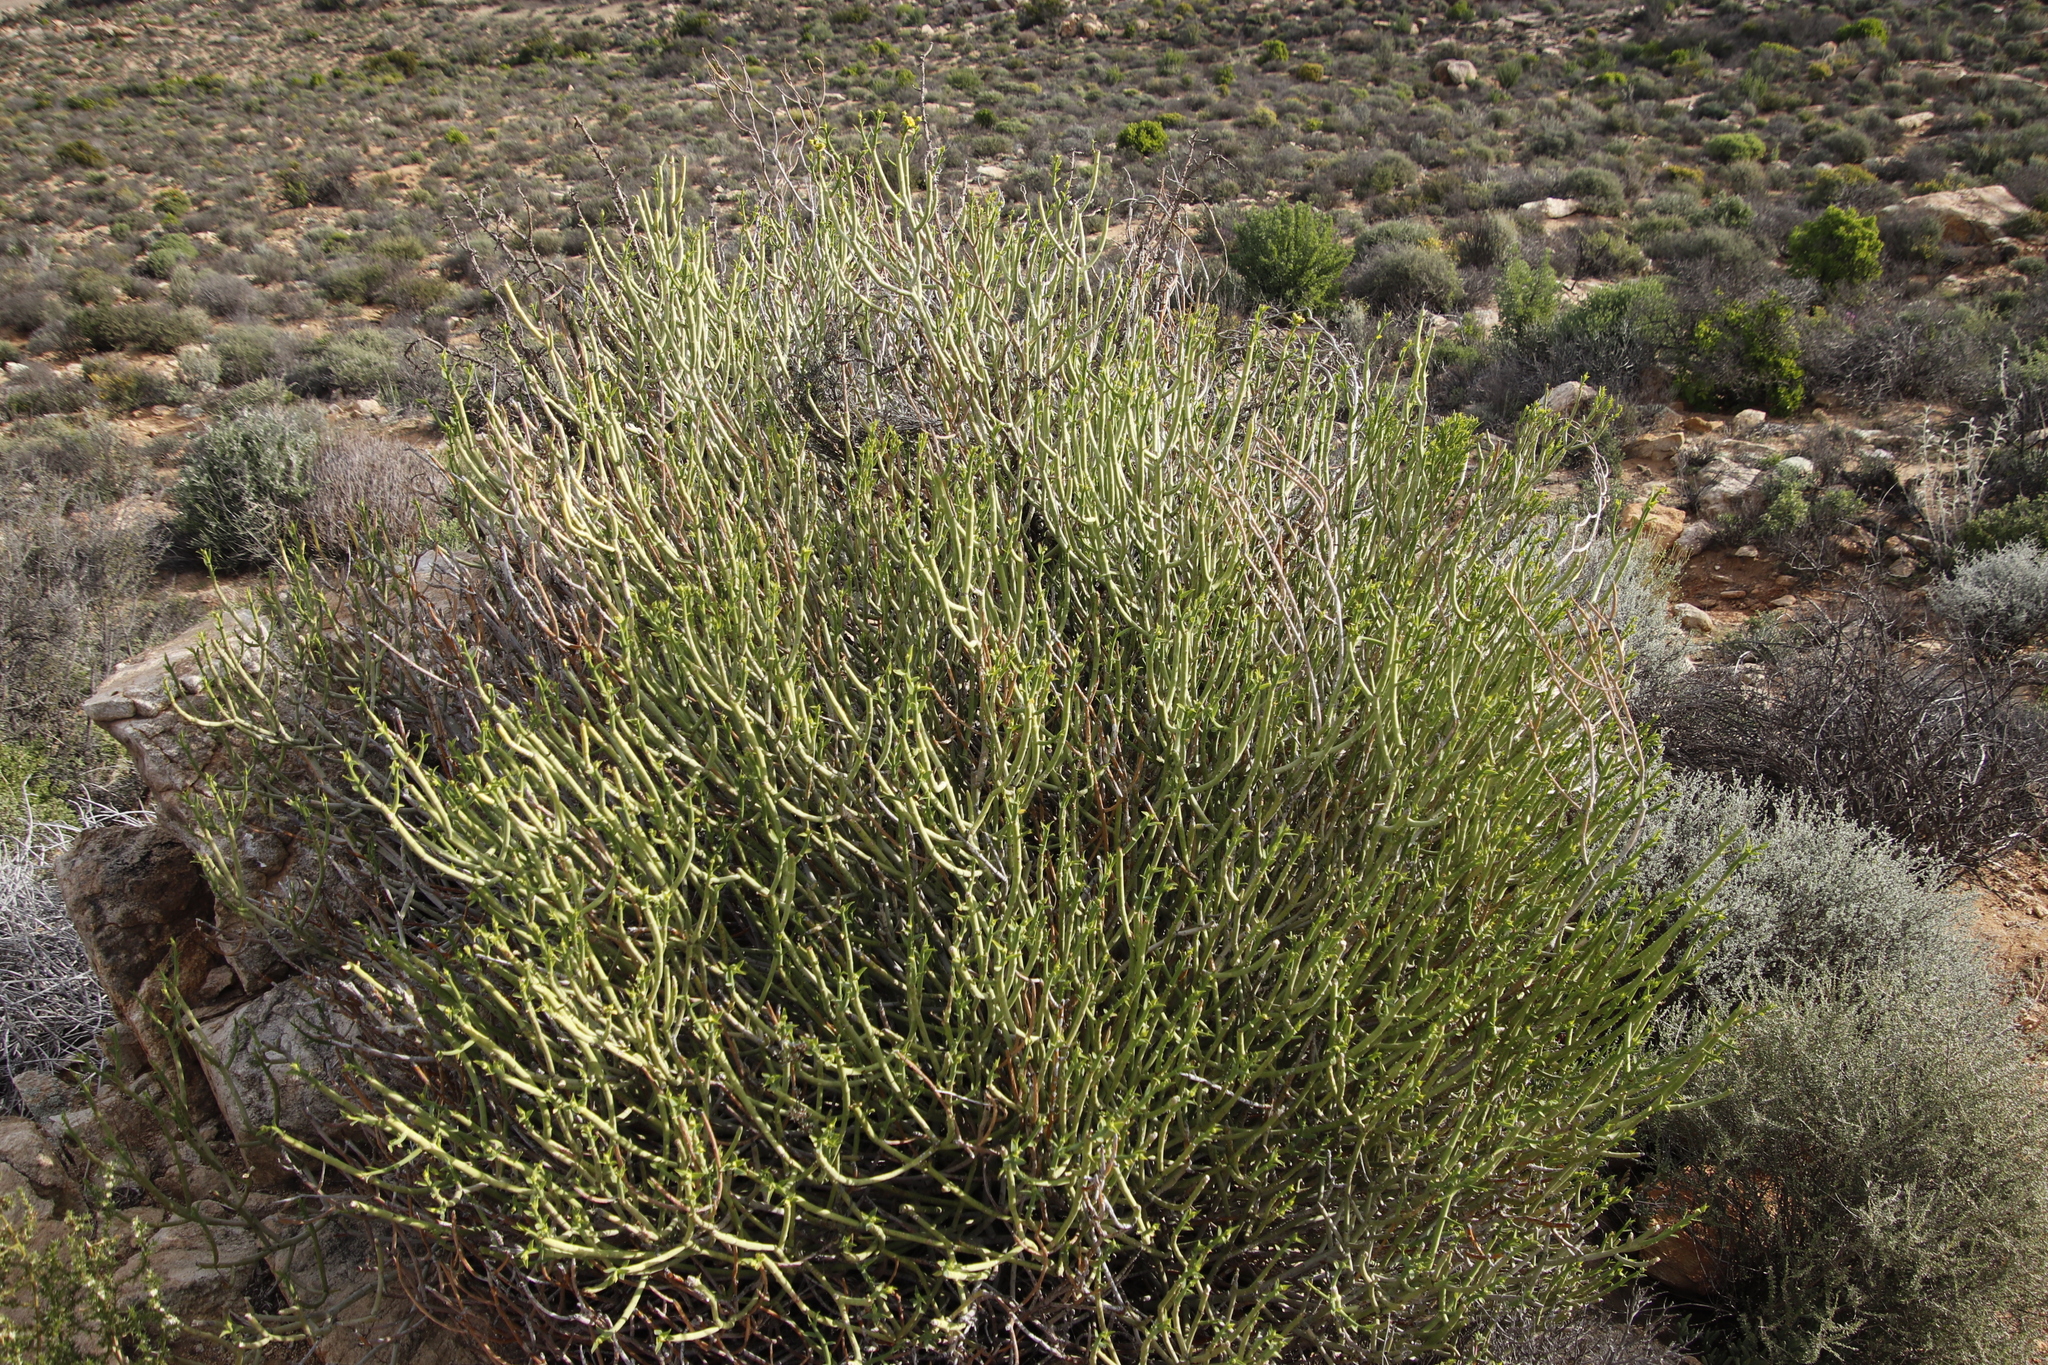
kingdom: Plantae
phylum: Tracheophyta
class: Magnoliopsida
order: Malpighiales
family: Euphorbiaceae
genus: Euphorbia
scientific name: Euphorbia mauritanica
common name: Jackal's-food
